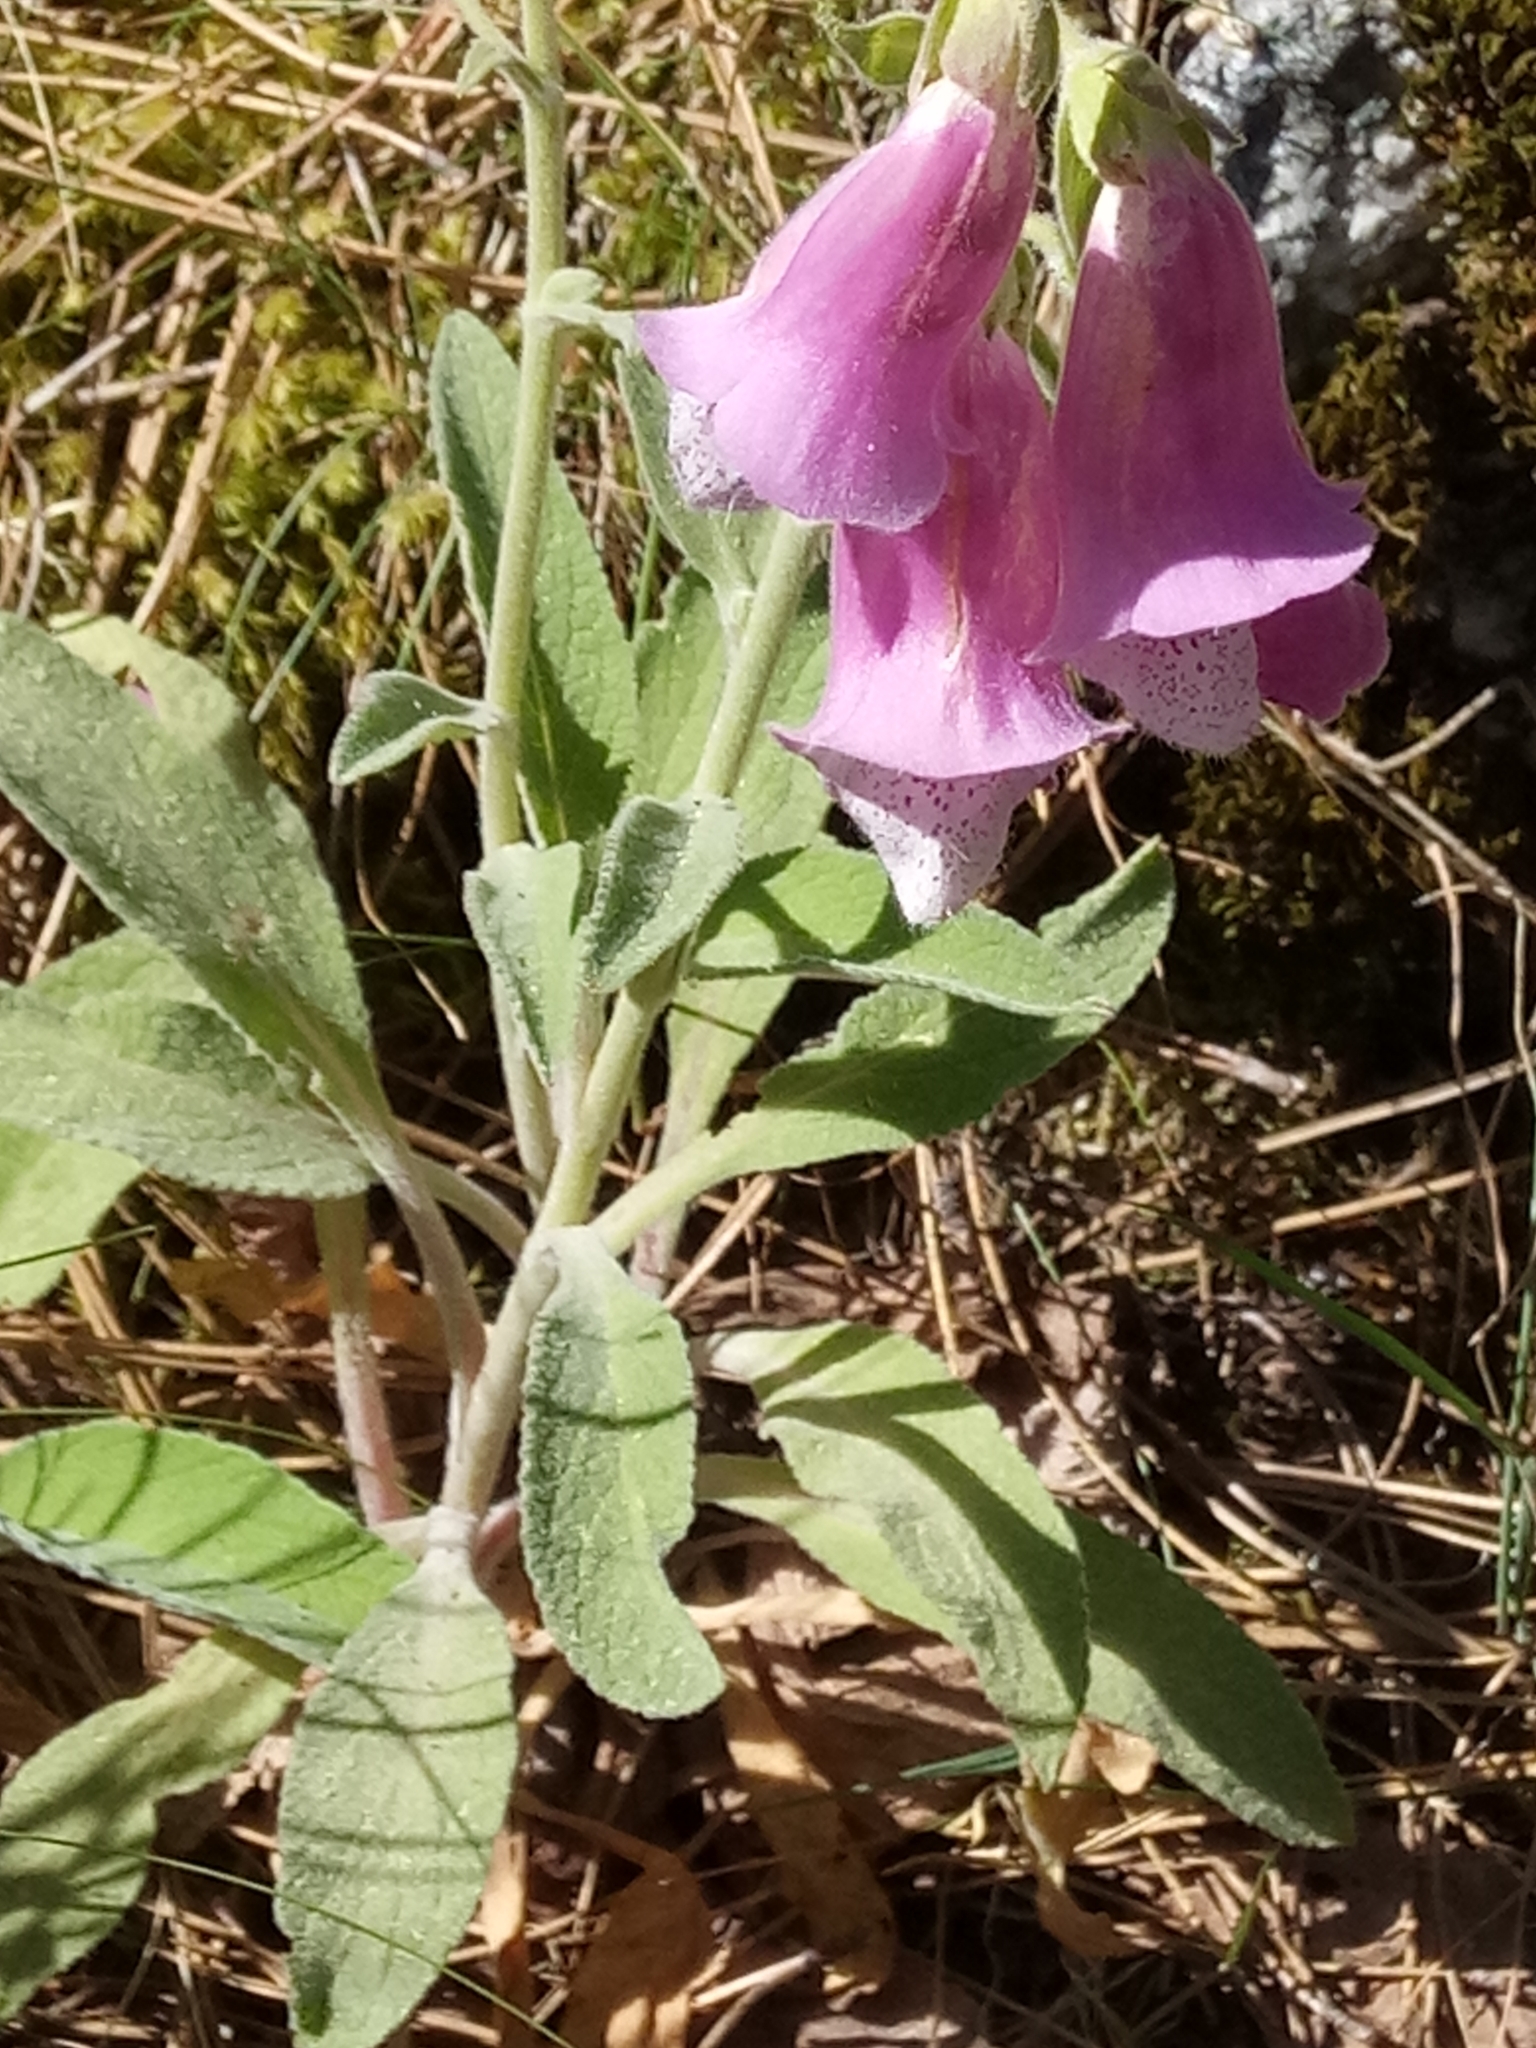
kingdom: Plantae
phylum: Tracheophyta
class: Magnoliopsida
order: Lamiales
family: Plantaginaceae
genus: Digitalis
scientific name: Digitalis purpurea
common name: Foxglove
